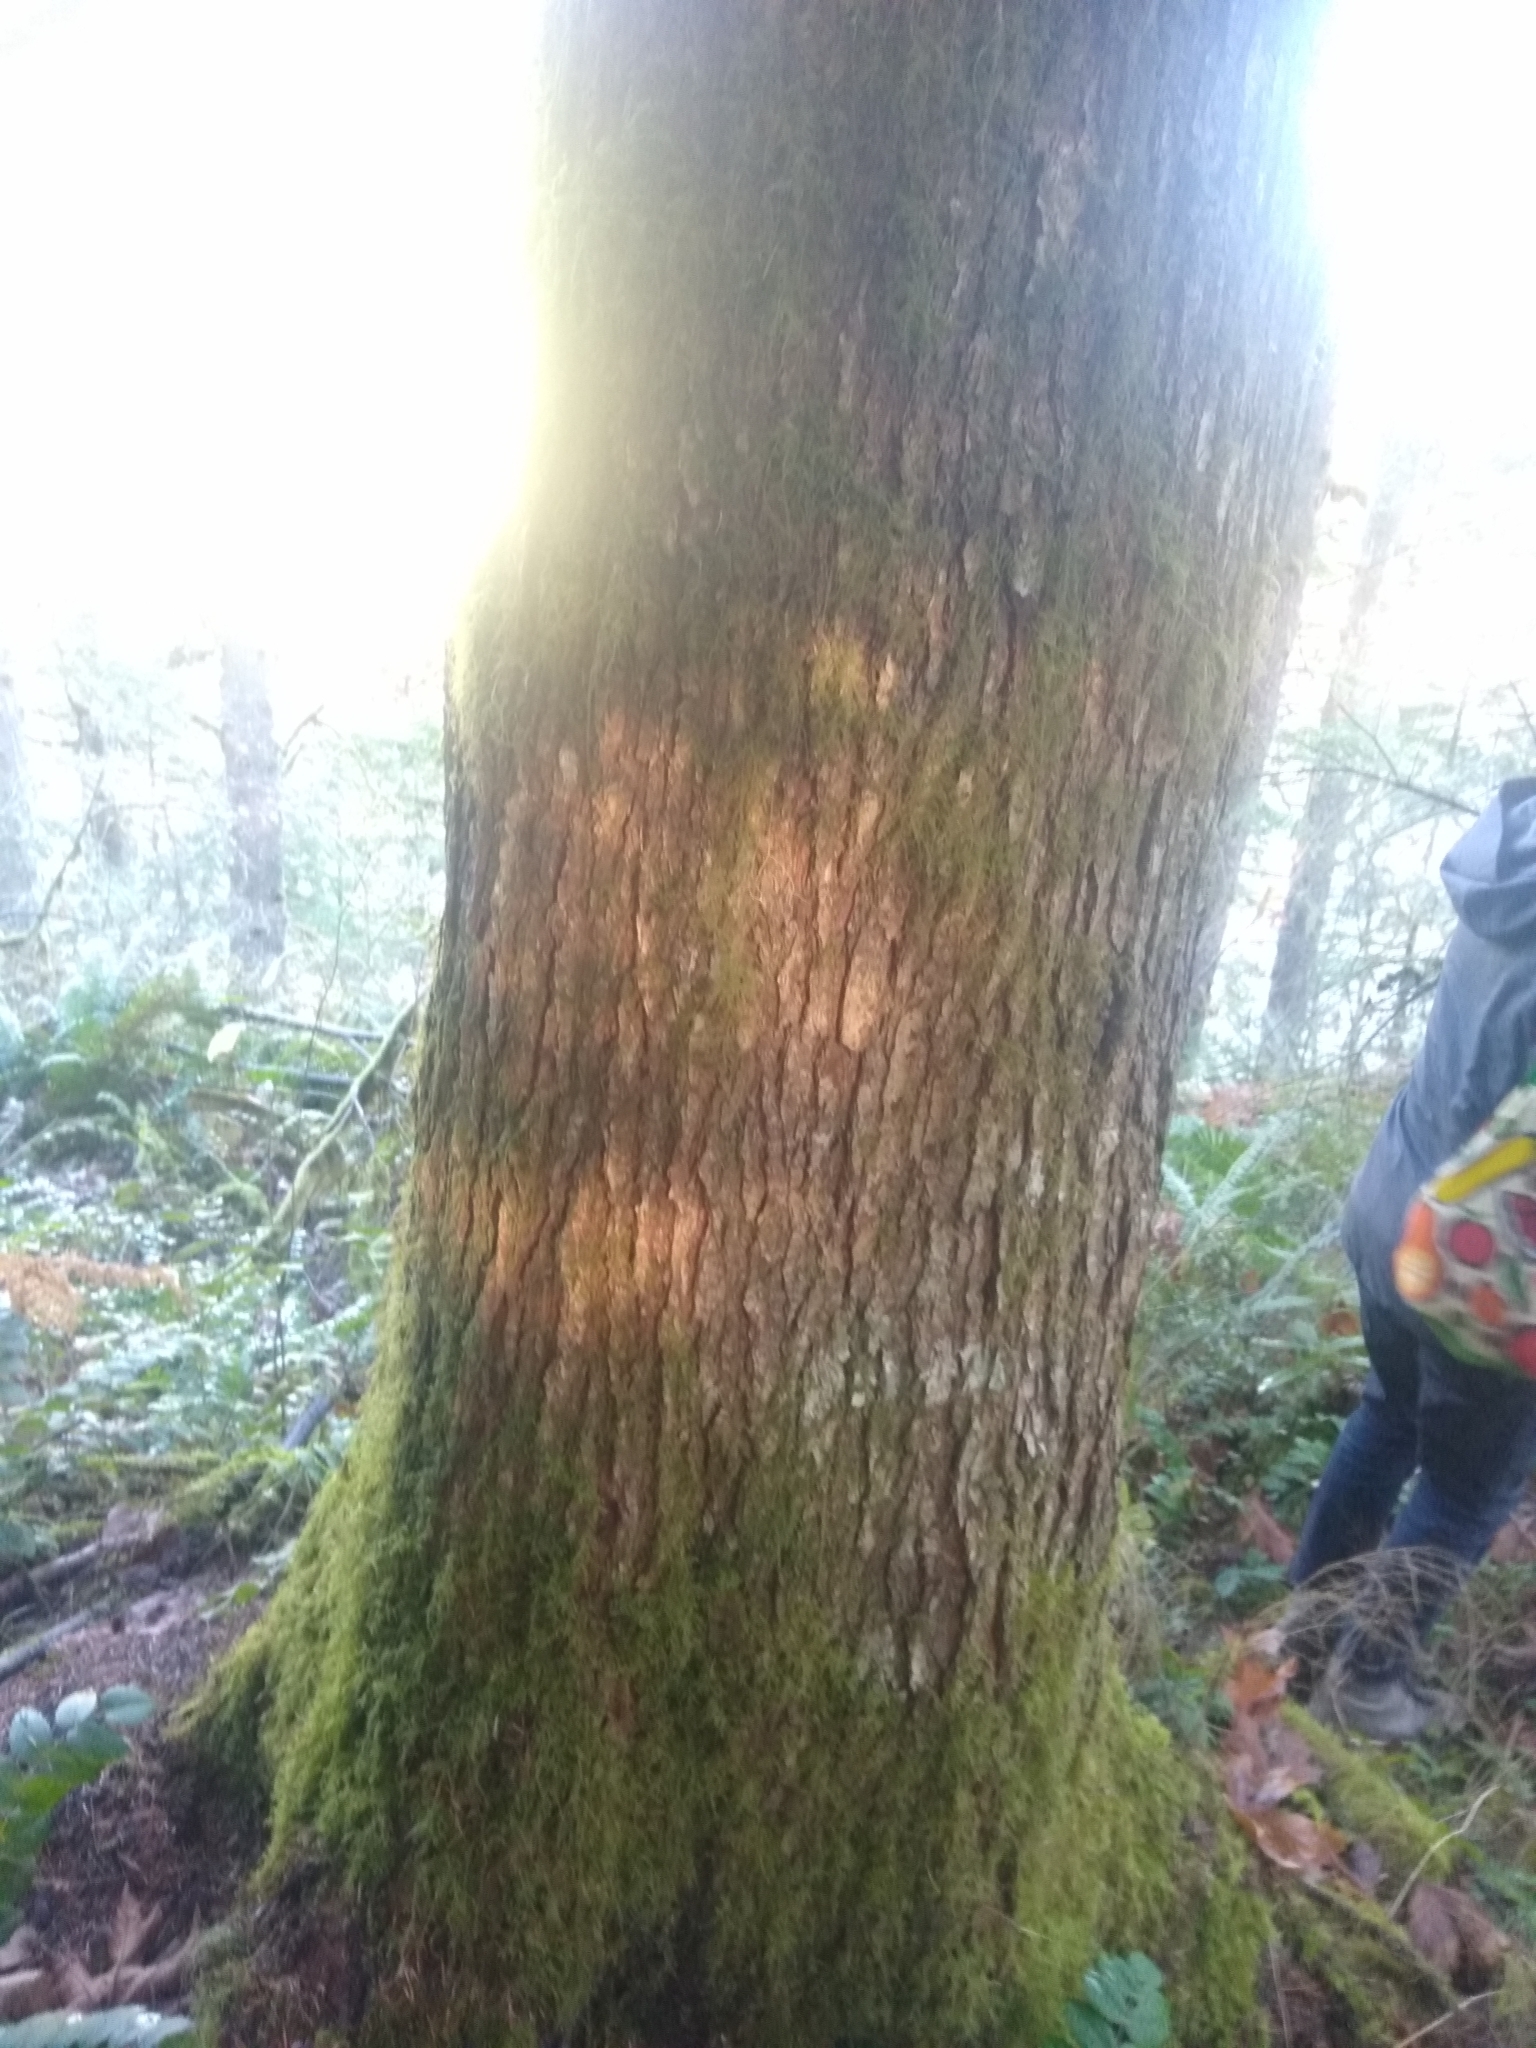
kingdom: Plantae
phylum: Tracheophyta
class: Pinopsida
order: Pinales
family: Pinaceae
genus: Tsuga
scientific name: Tsuga heterophylla
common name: Western hemlock
